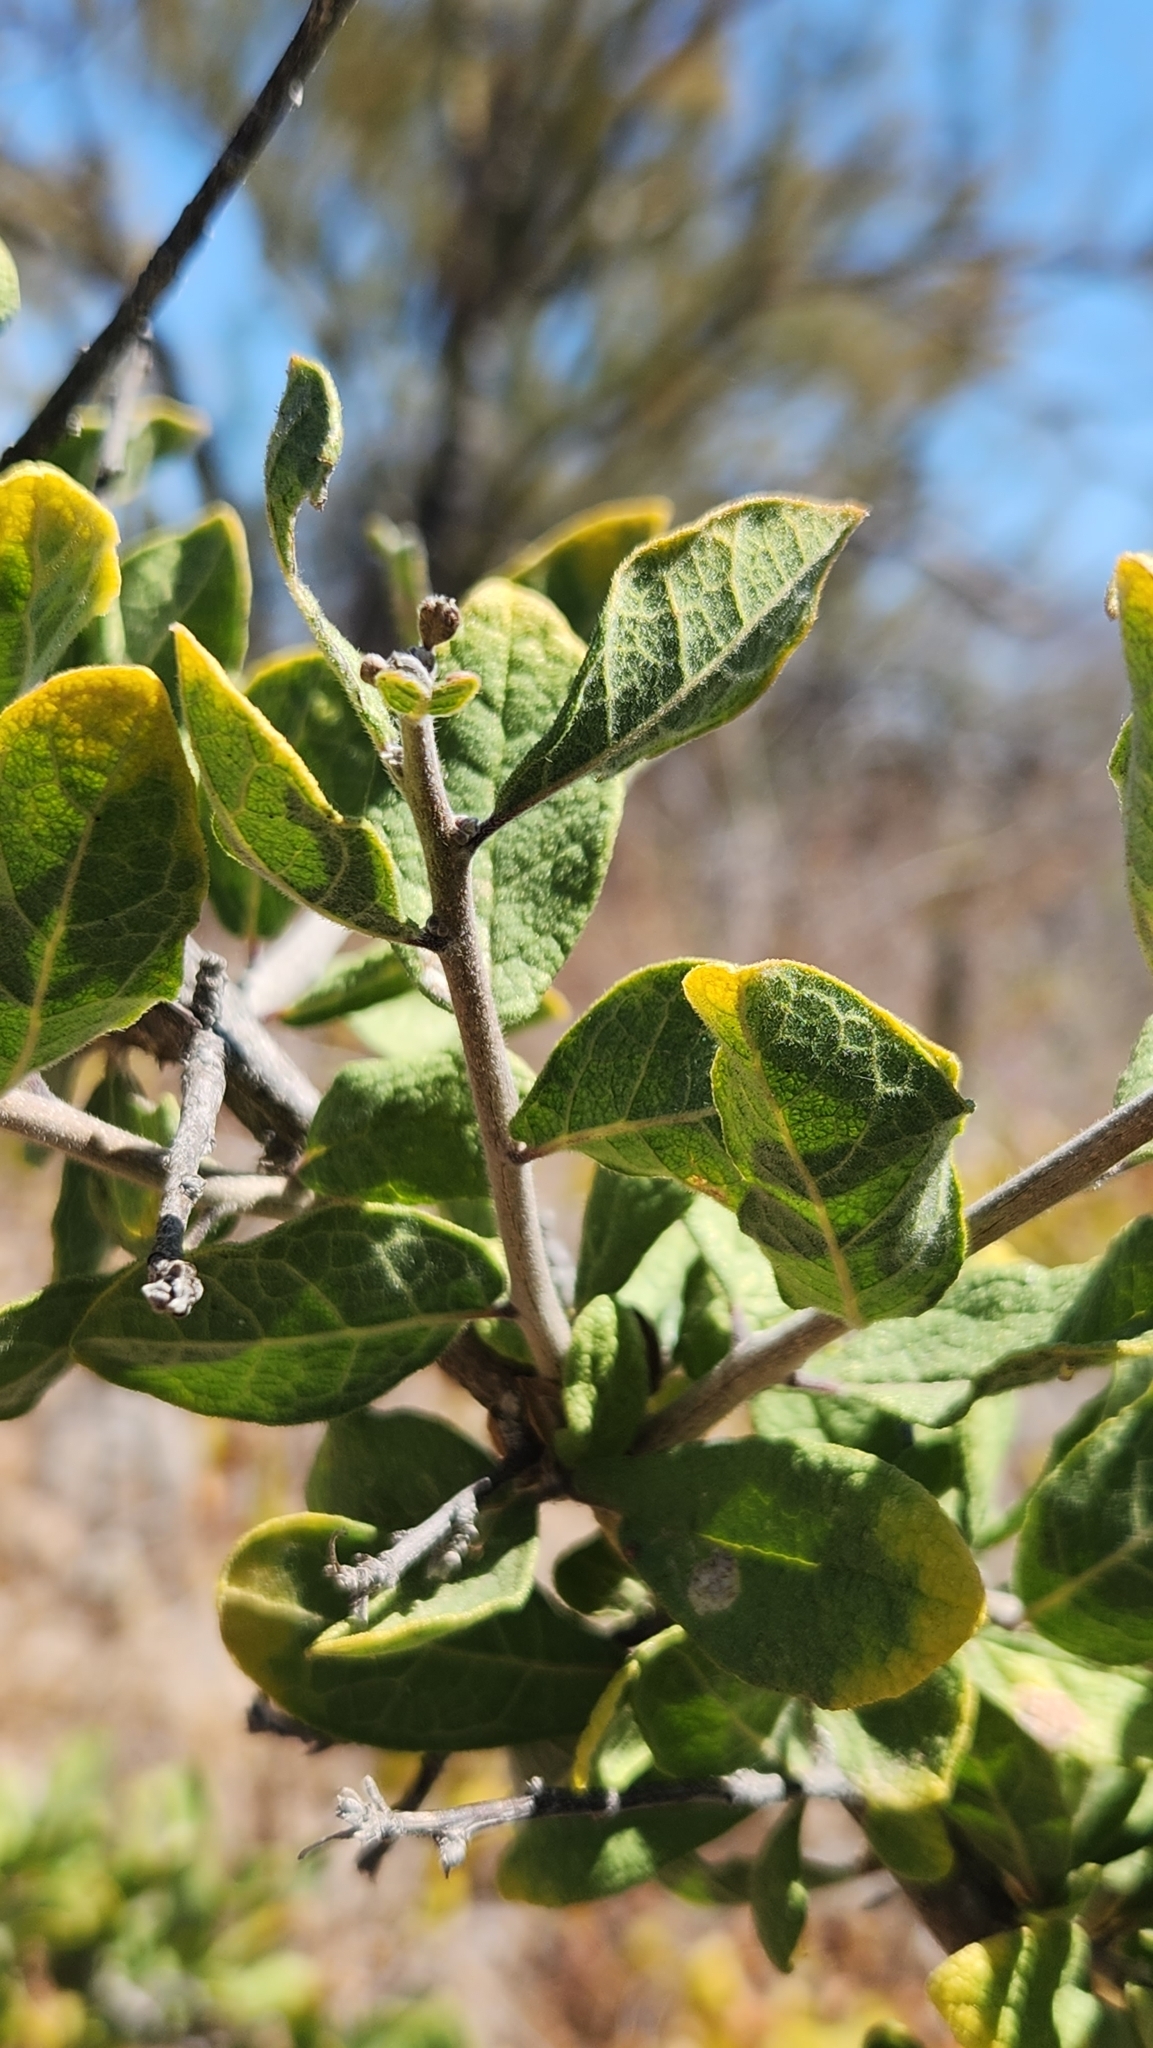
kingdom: Plantae
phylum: Tracheophyta
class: Magnoliopsida
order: Boraginales
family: Ehretiaceae
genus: Bourreria
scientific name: Bourreria sonorae
